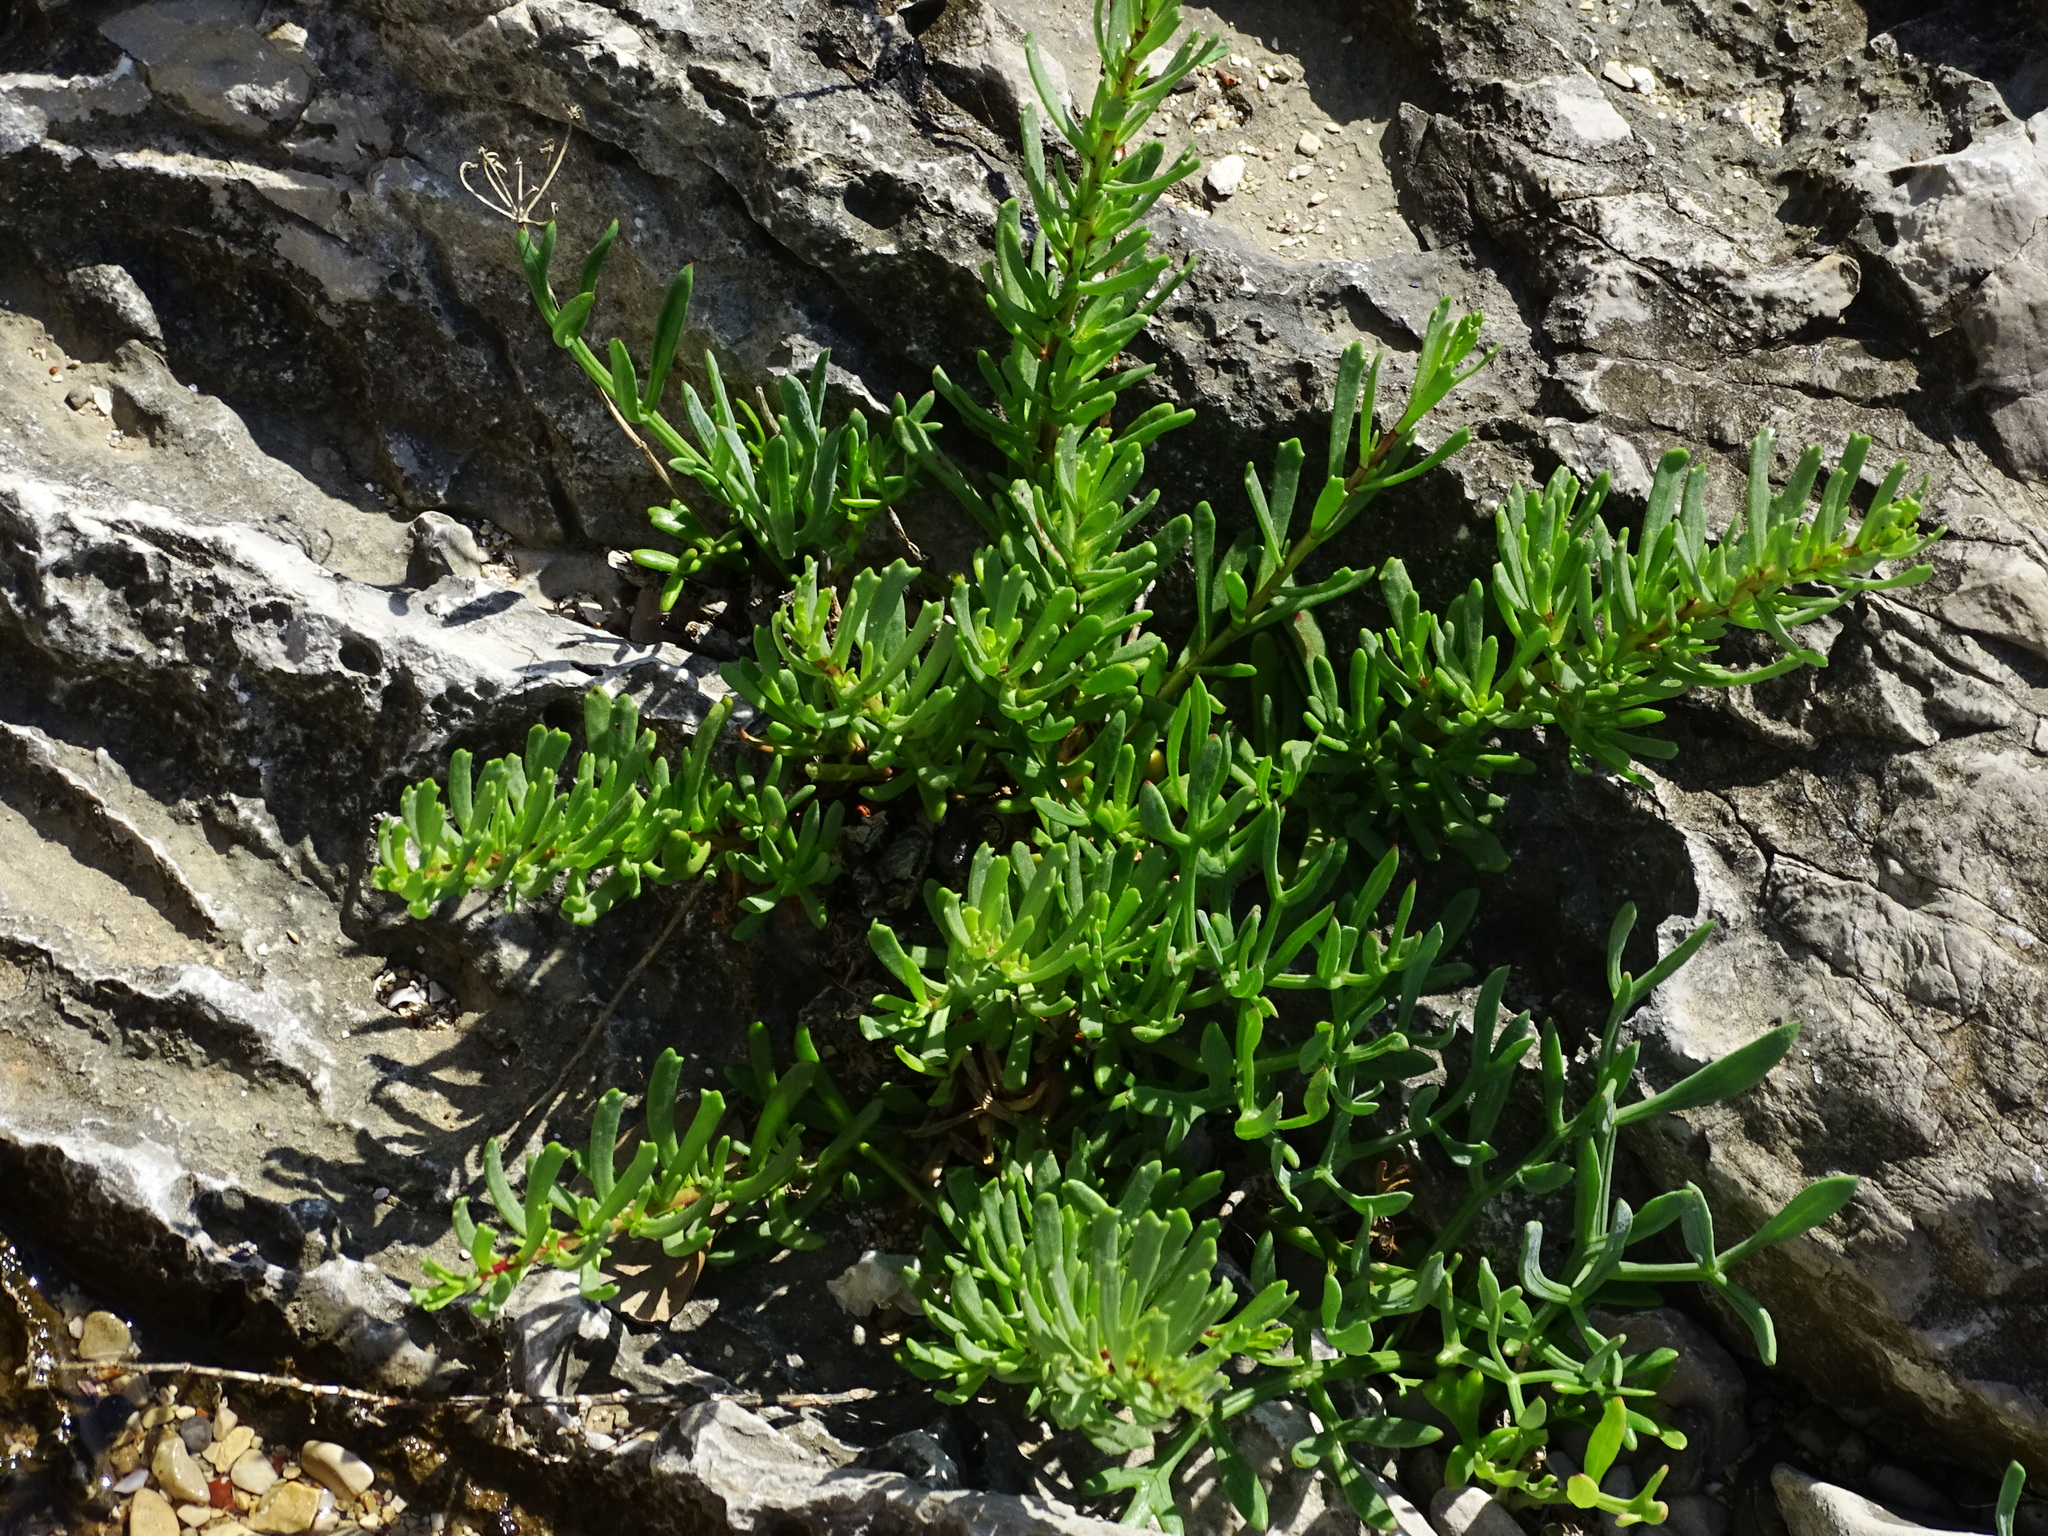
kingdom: Plantae
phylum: Tracheophyta
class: Magnoliopsida
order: Asterales
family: Asteraceae
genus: Limbarda
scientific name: Limbarda crithmoides
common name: Golden samphire
